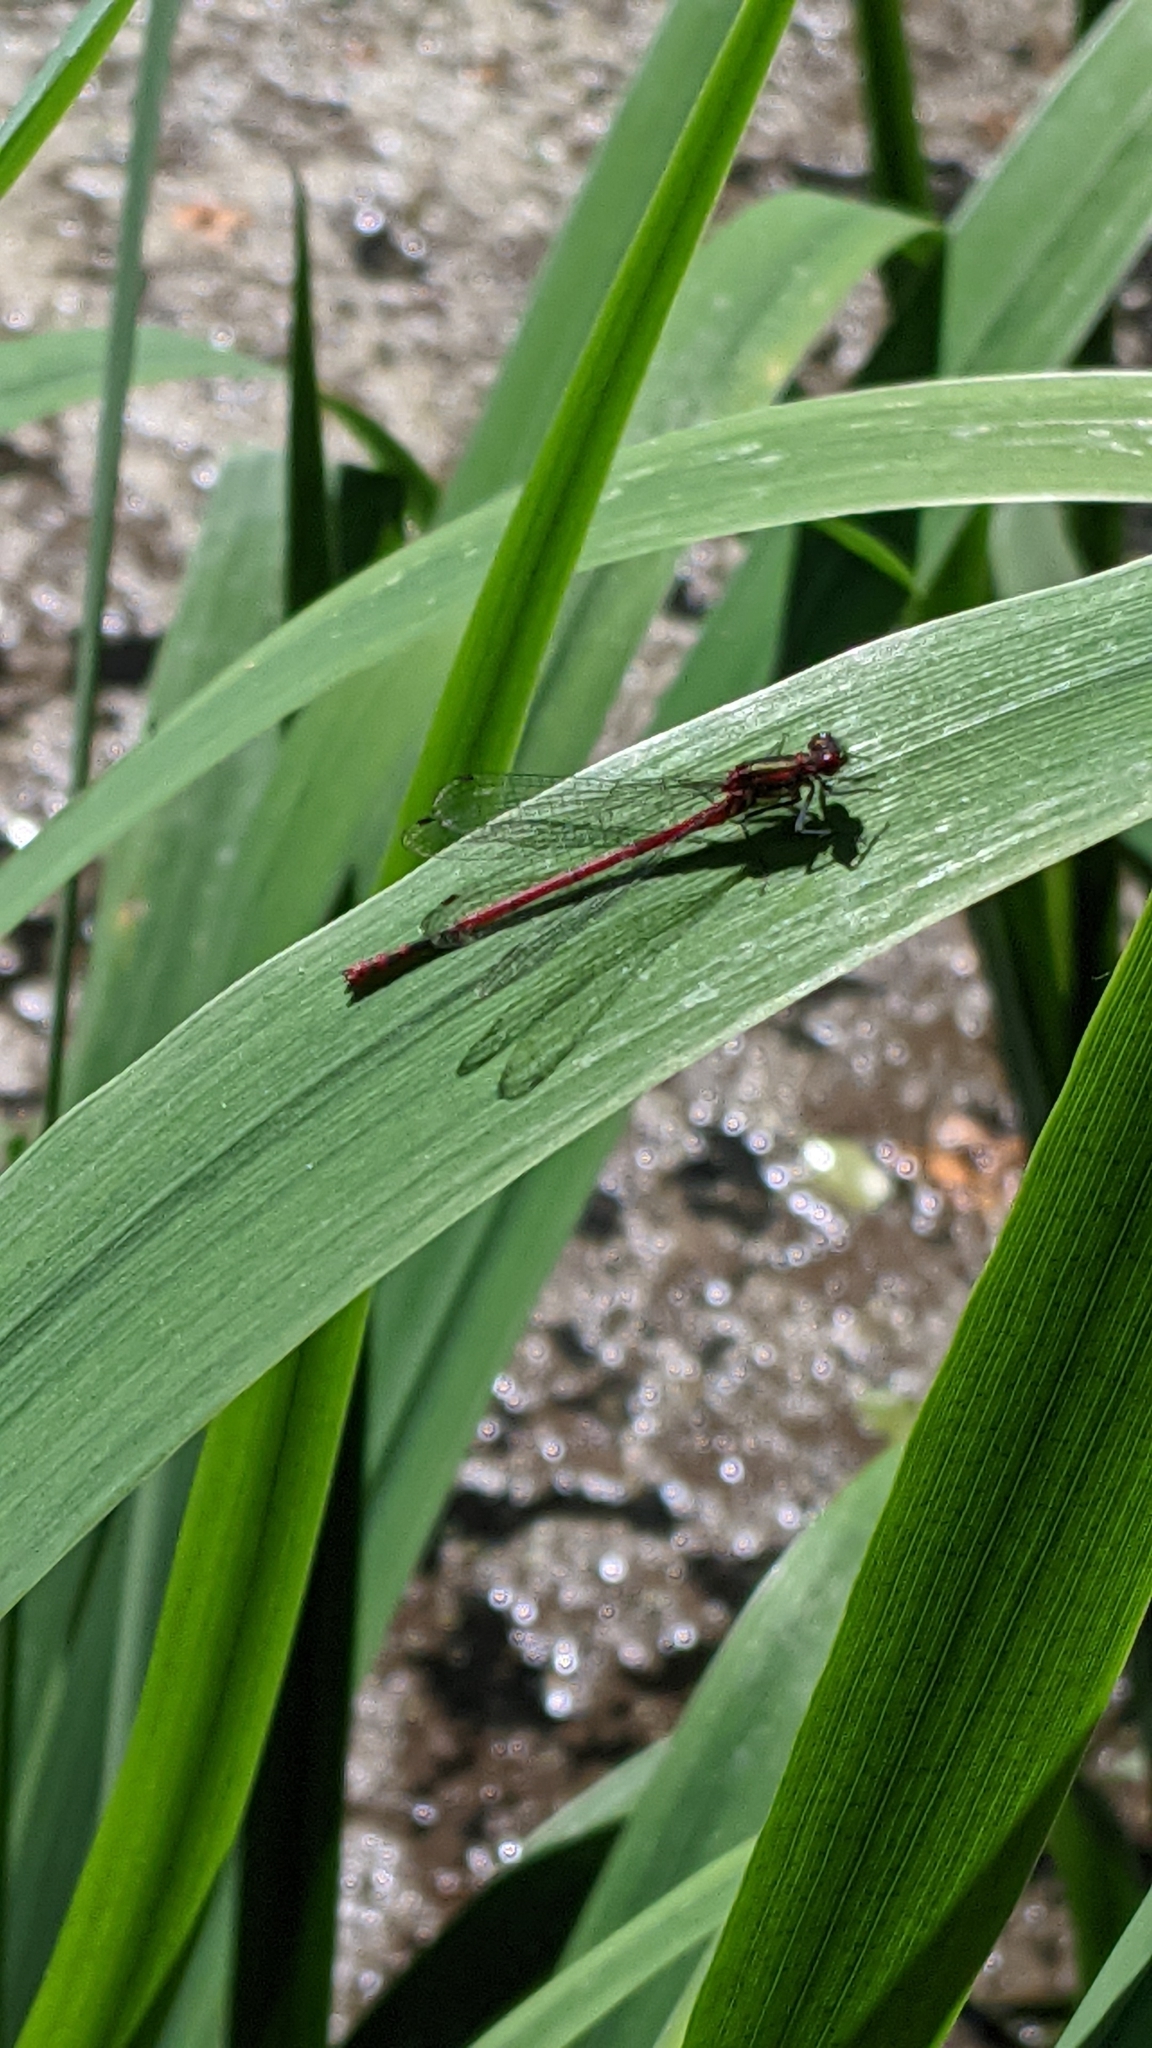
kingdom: Animalia
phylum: Arthropoda
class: Insecta
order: Odonata
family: Coenagrionidae
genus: Pyrrhosoma
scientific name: Pyrrhosoma nymphula
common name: Large red damsel
